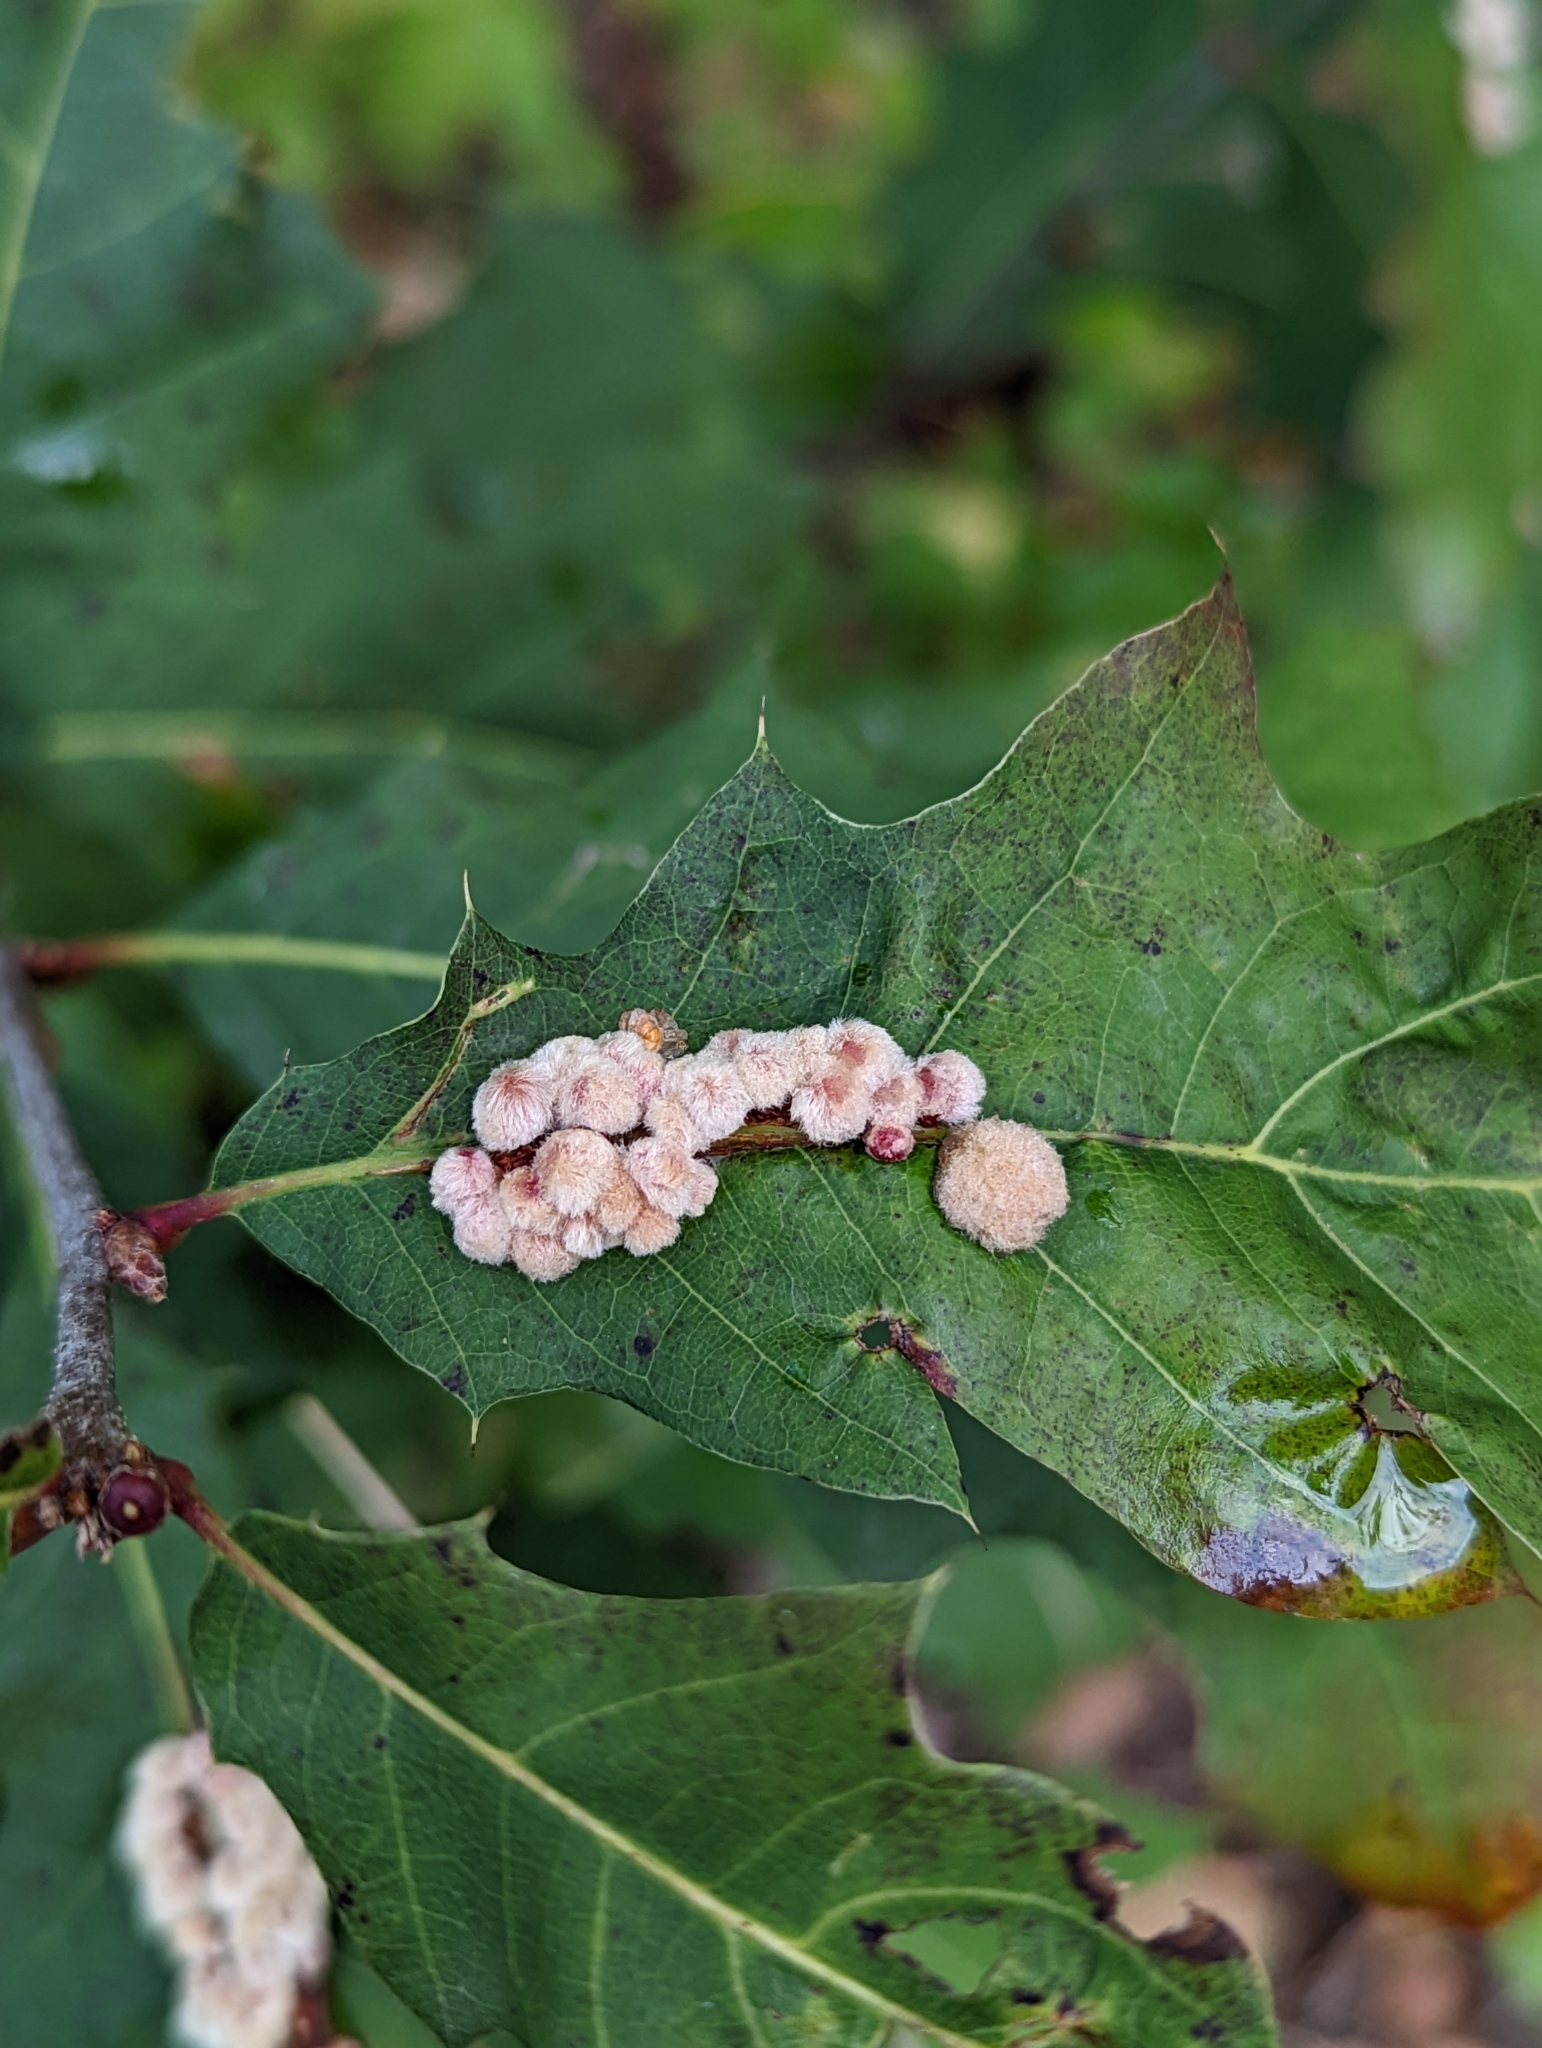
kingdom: Animalia
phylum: Arthropoda
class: Insecta
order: Hymenoptera
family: Cynipidae
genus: Callirhytis
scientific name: Callirhytis
